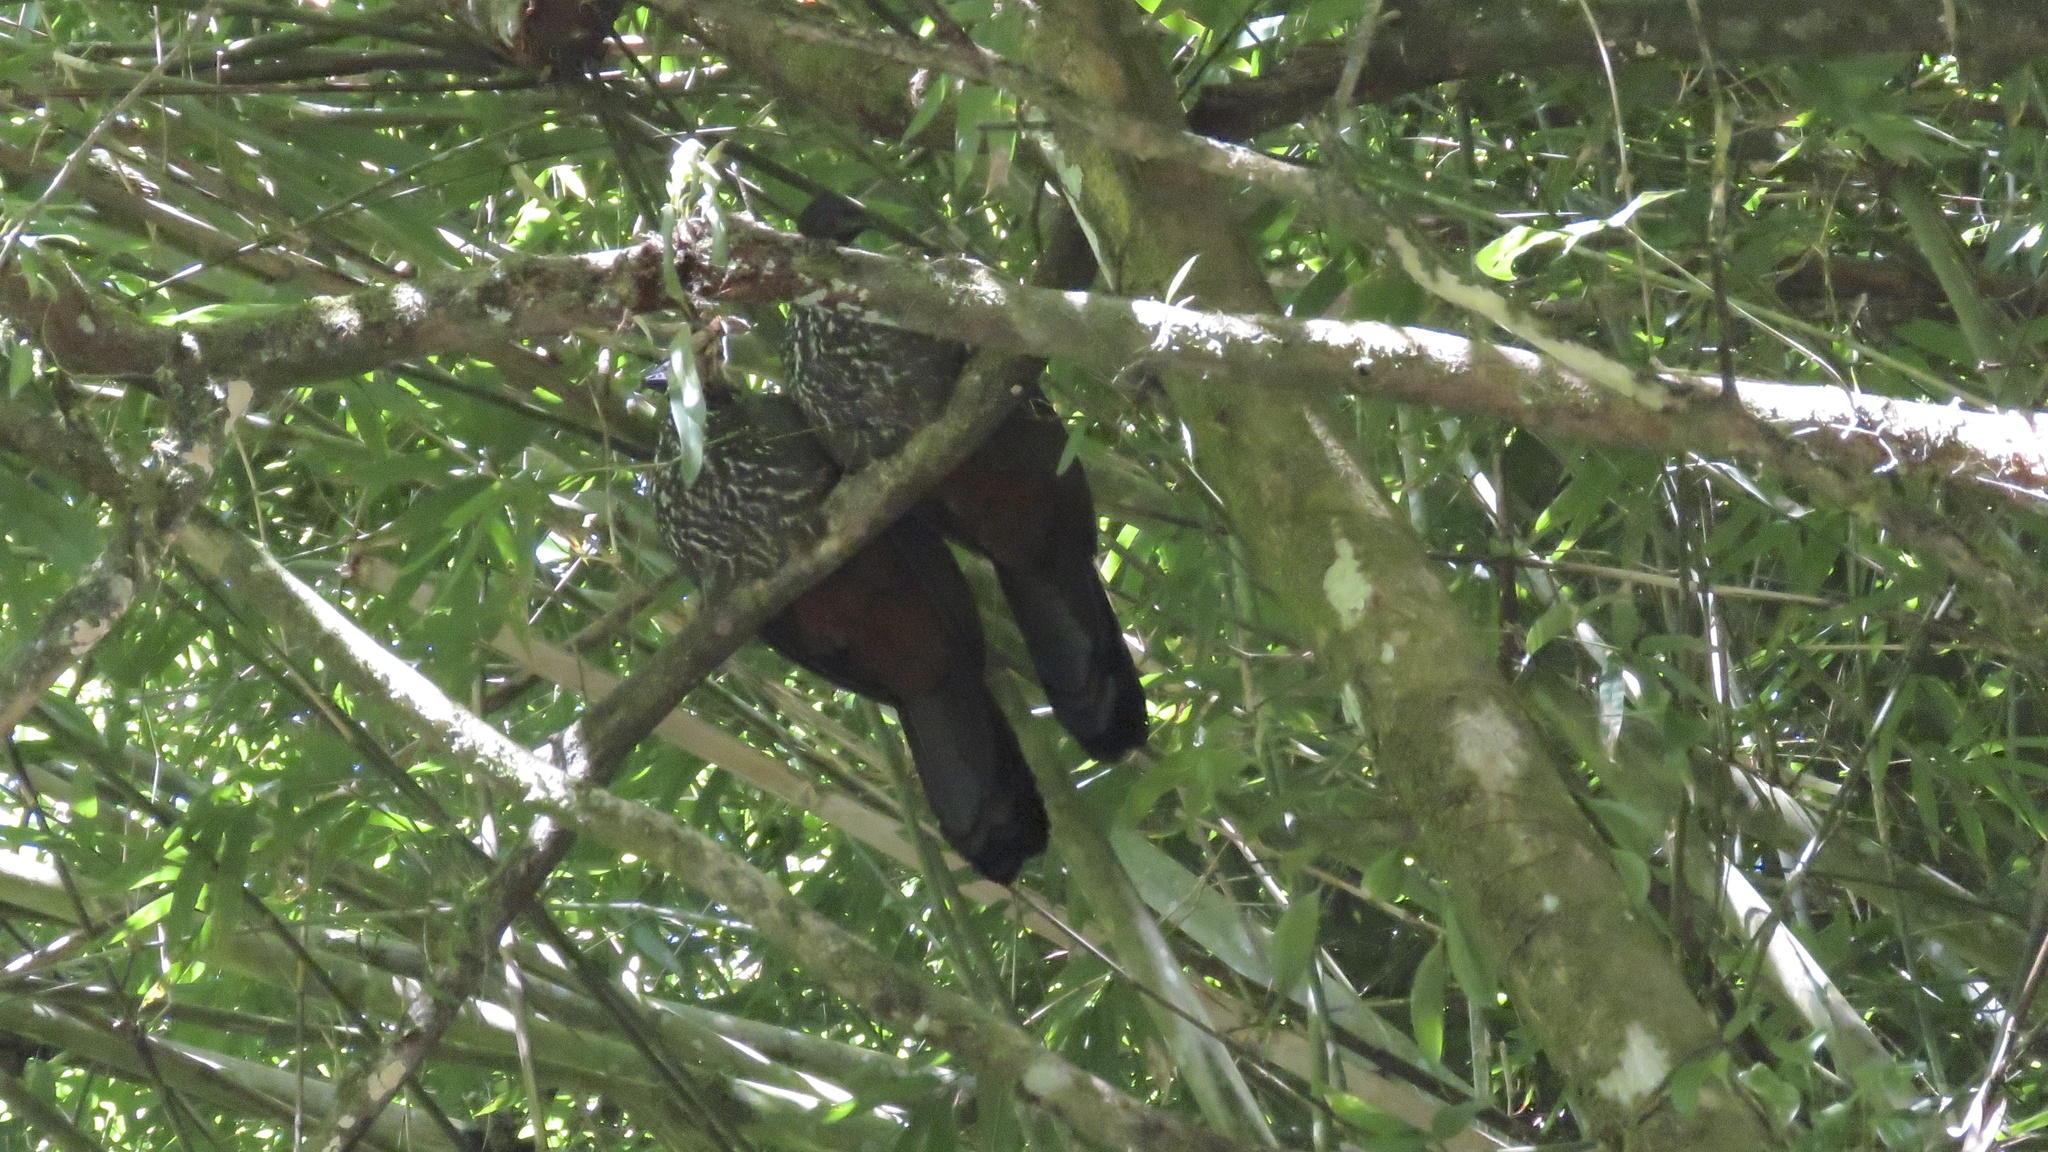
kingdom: Animalia
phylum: Chordata
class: Aves
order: Galliformes
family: Cracidae
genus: Penelope
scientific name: Penelope purpurascens
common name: Crested guan
